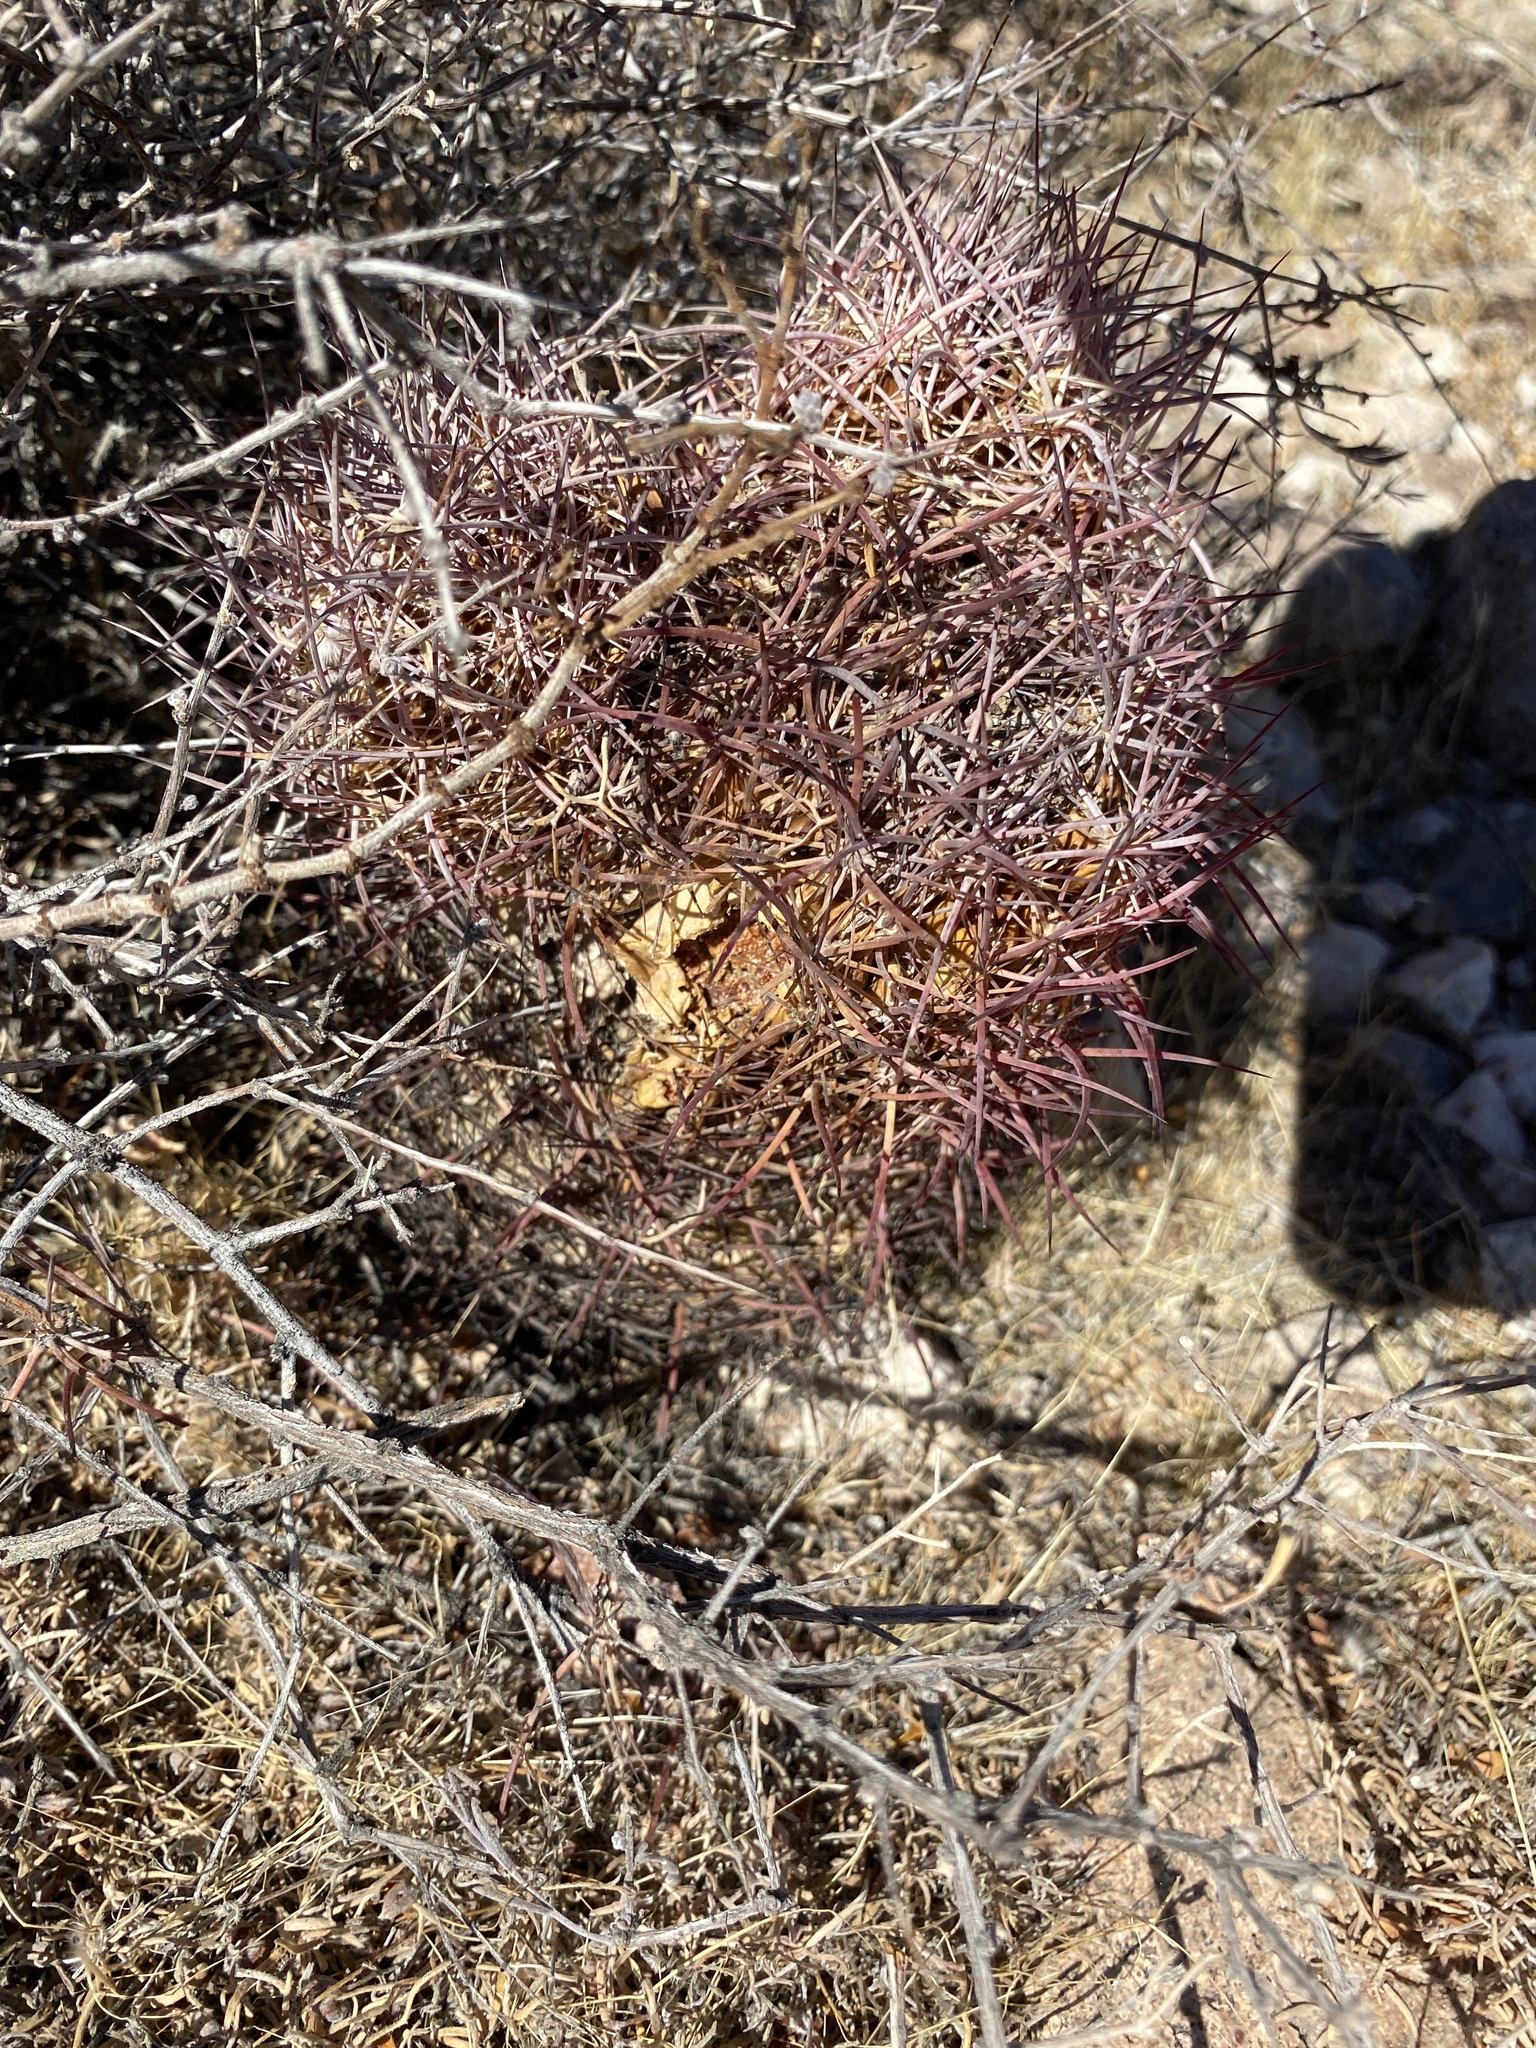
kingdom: Plantae
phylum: Tracheophyta
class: Magnoliopsida
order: Caryophyllales
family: Cactaceae
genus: Sclerocactus
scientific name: Sclerocactus johnsonii
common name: Eight-spine fishhook cactus
